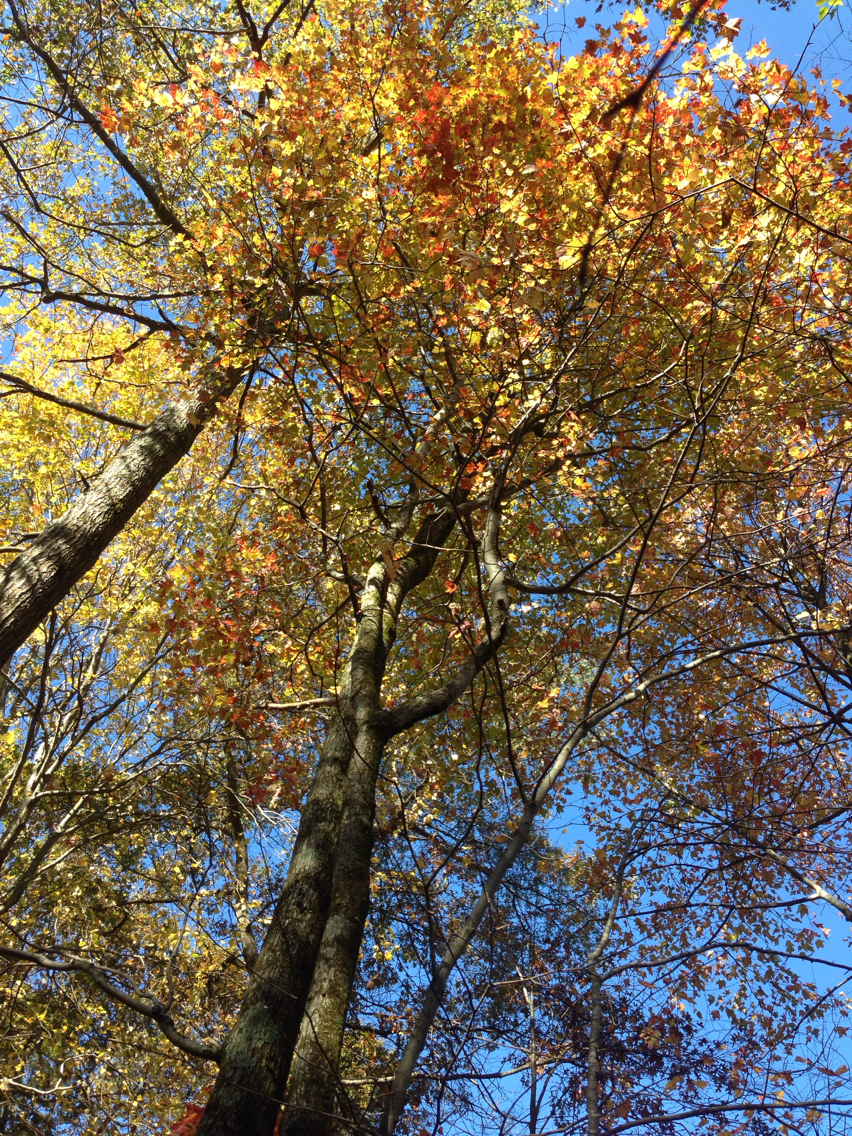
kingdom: Plantae
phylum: Tracheophyta
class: Magnoliopsida
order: Sapindales
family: Sapindaceae
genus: Acer
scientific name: Acer rubrum
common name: Red maple
